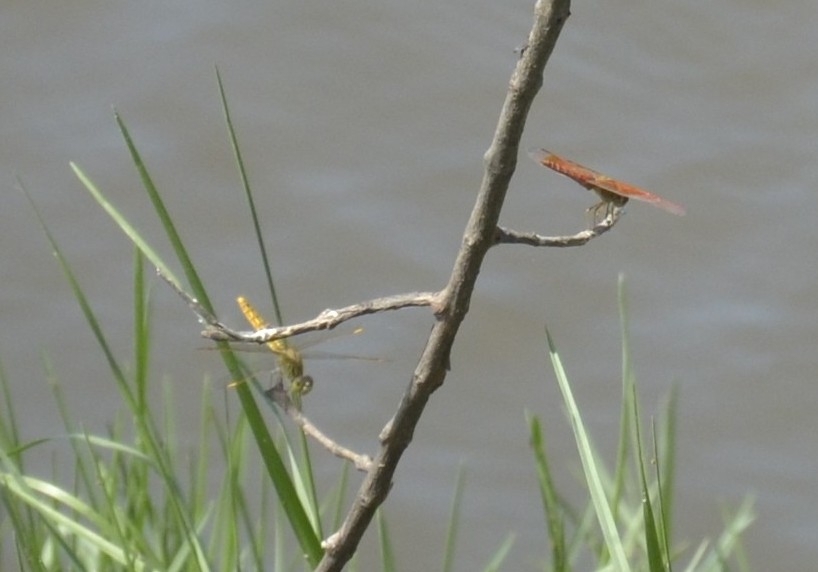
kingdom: Animalia
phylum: Arthropoda
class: Insecta
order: Odonata
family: Libellulidae
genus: Brachythemis
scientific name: Brachythemis contaminata
